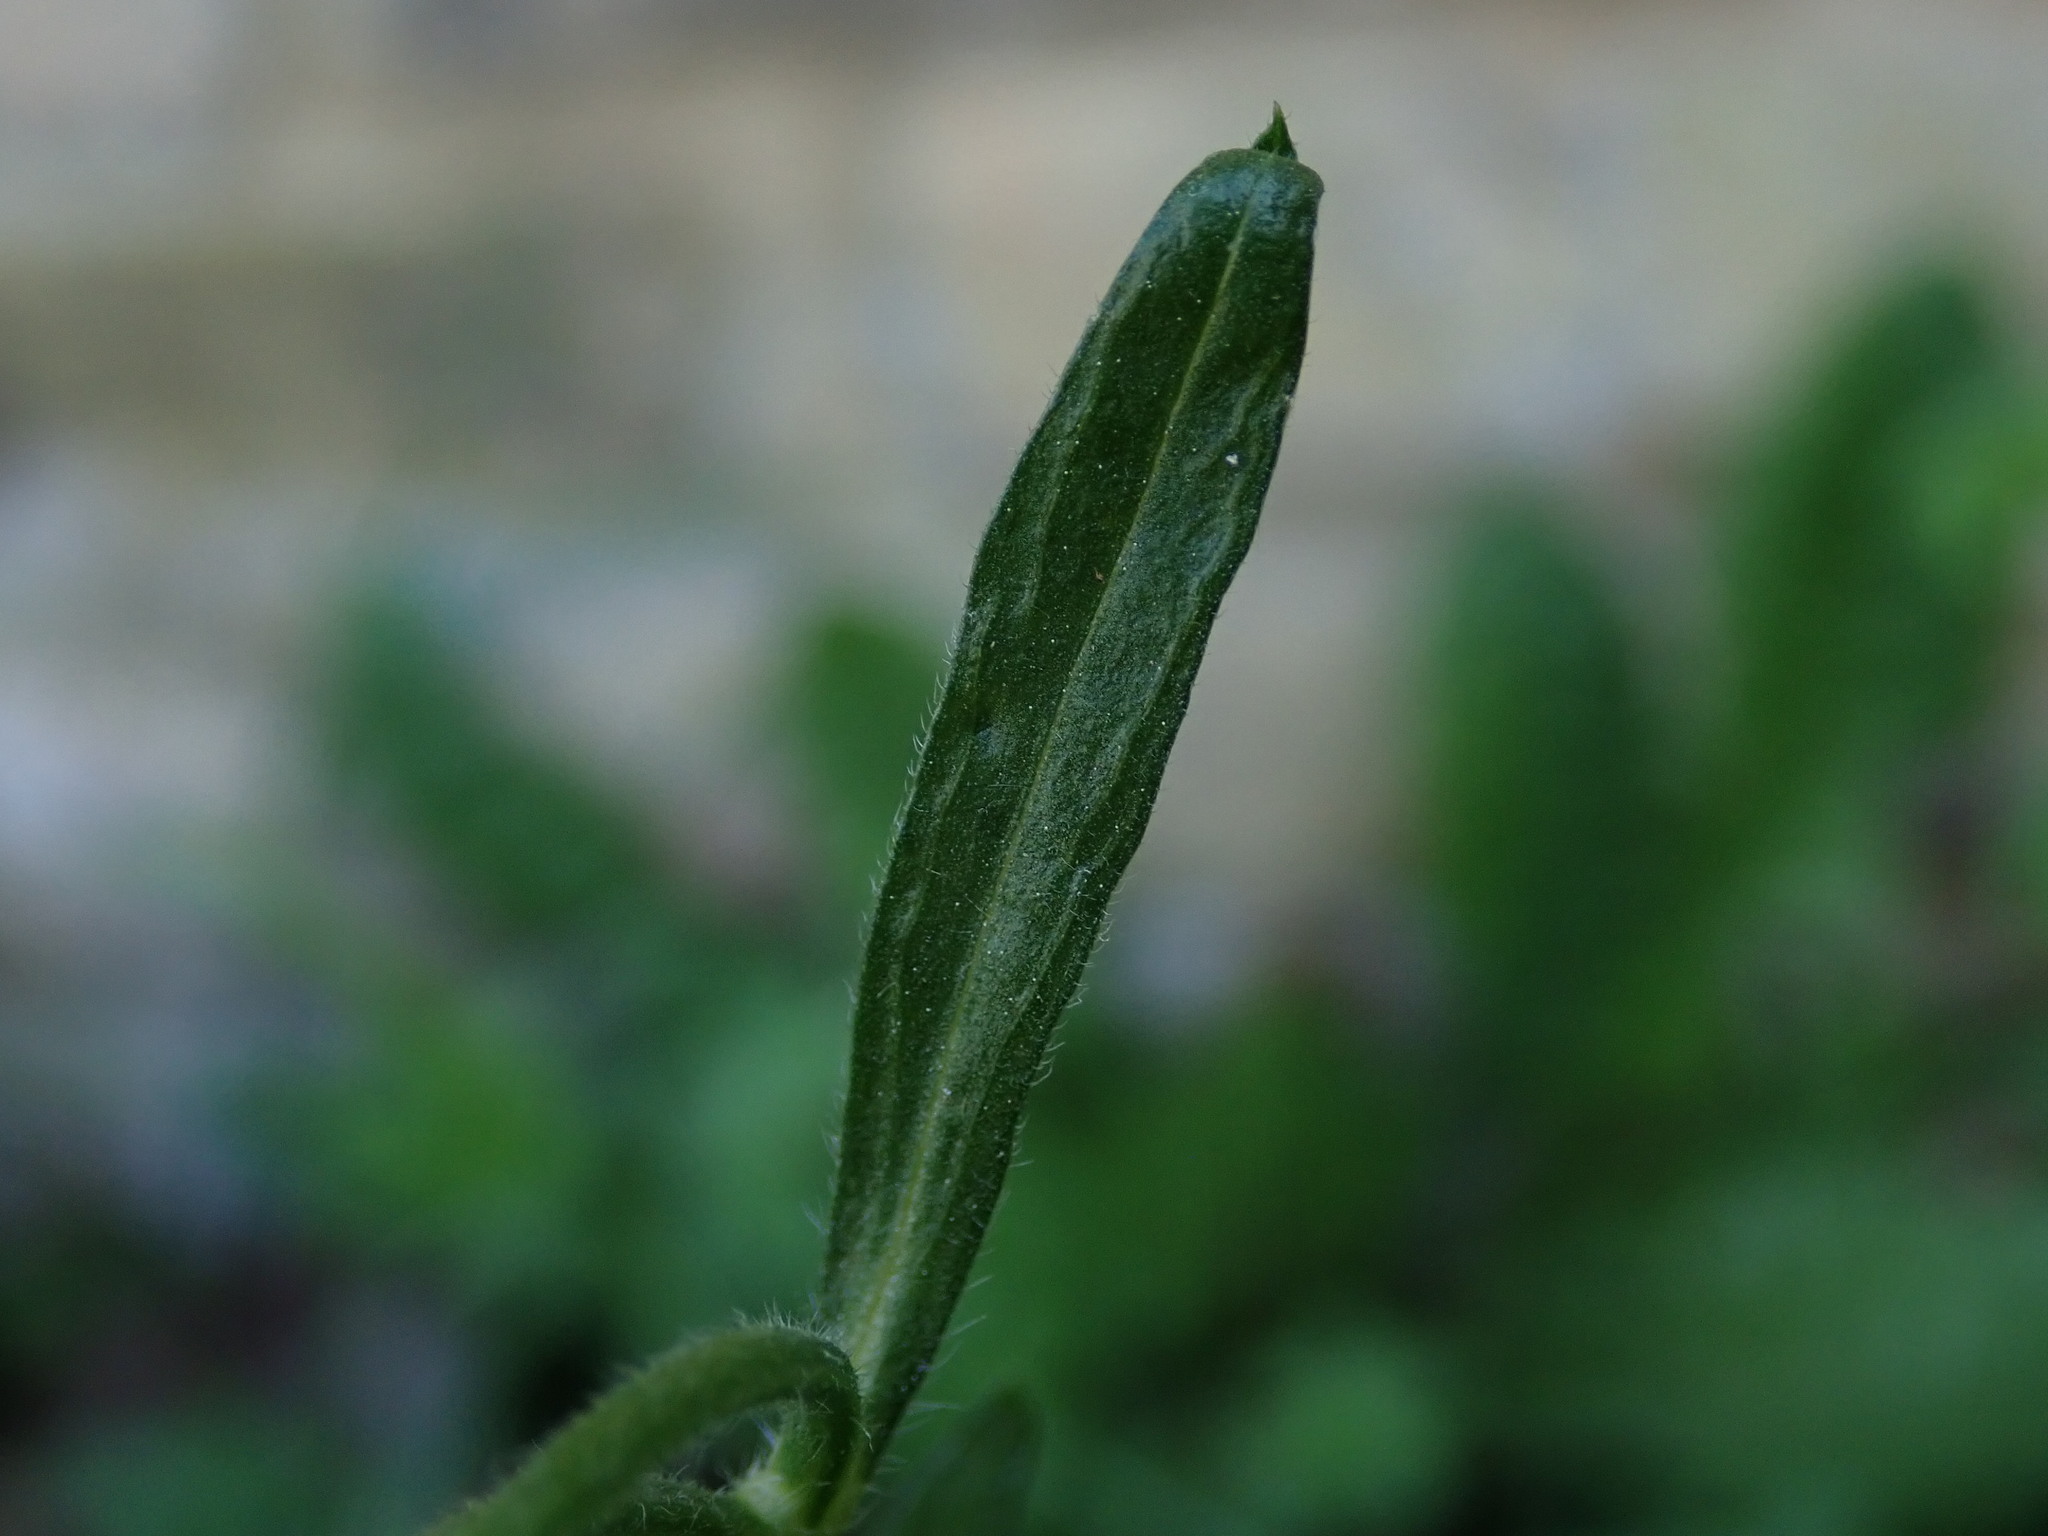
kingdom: Plantae
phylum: Tracheophyta
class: Magnoliopsida
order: Asterales
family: Asteraceae
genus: Erigeron
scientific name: Erigeron sumatrensis
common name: Daisy
